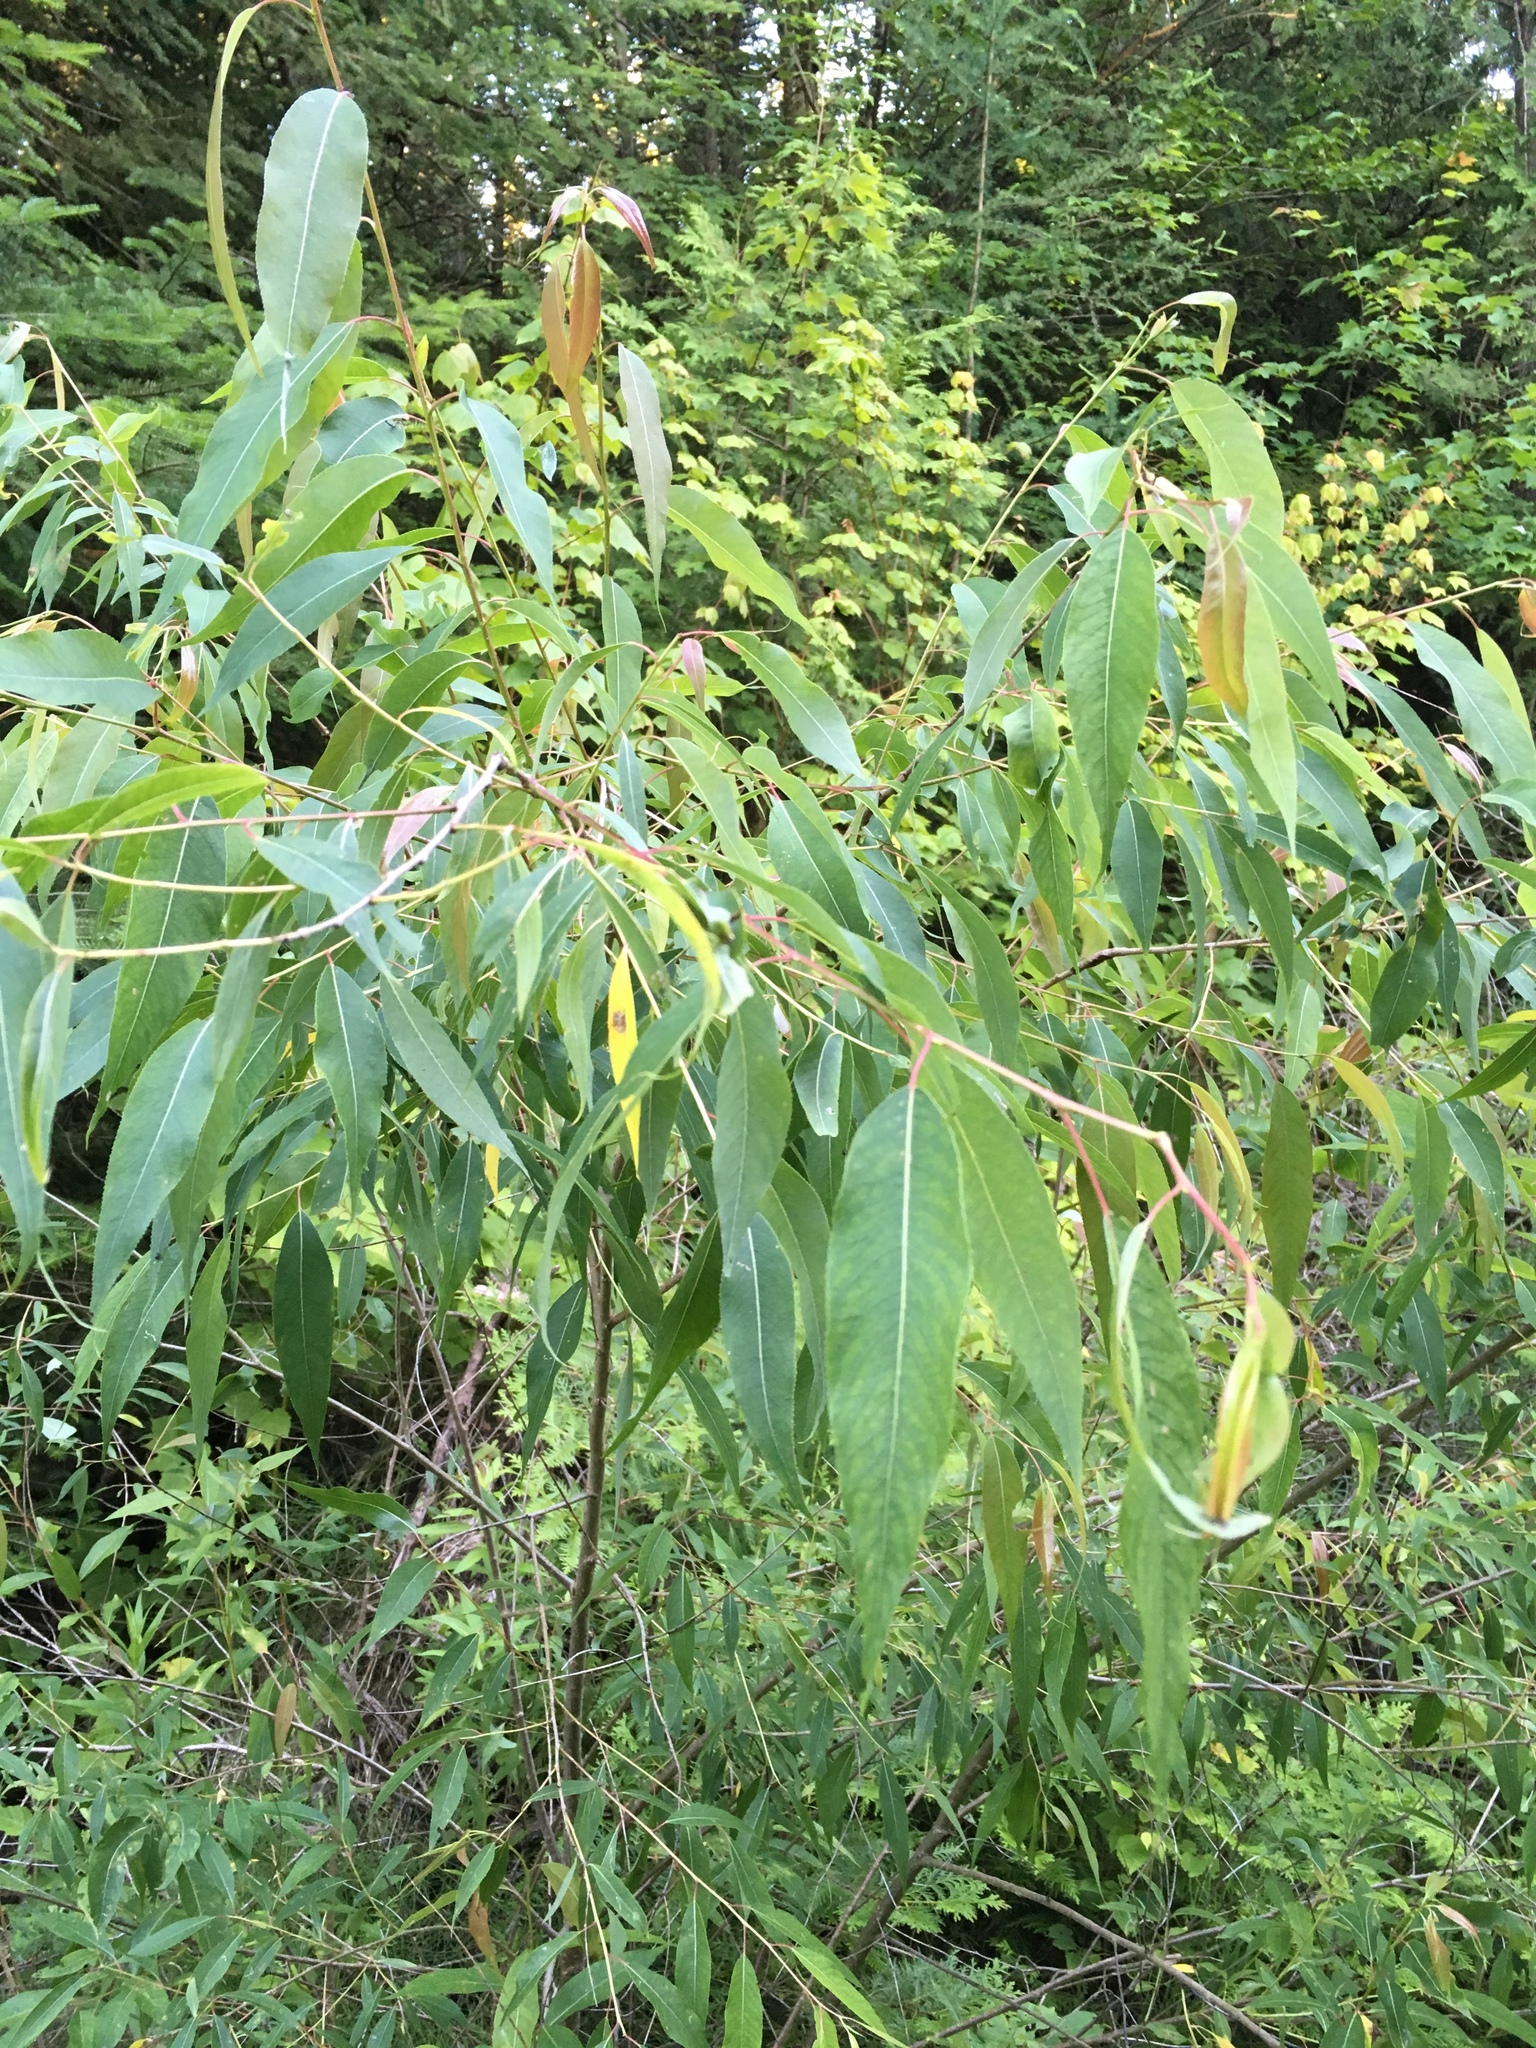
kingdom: Plantae
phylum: Tracheophyta
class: Magnoliopsida
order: Malpighiales
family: Salicaceae
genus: Salix
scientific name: Salix amygdaloides
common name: Peach leaf willow
